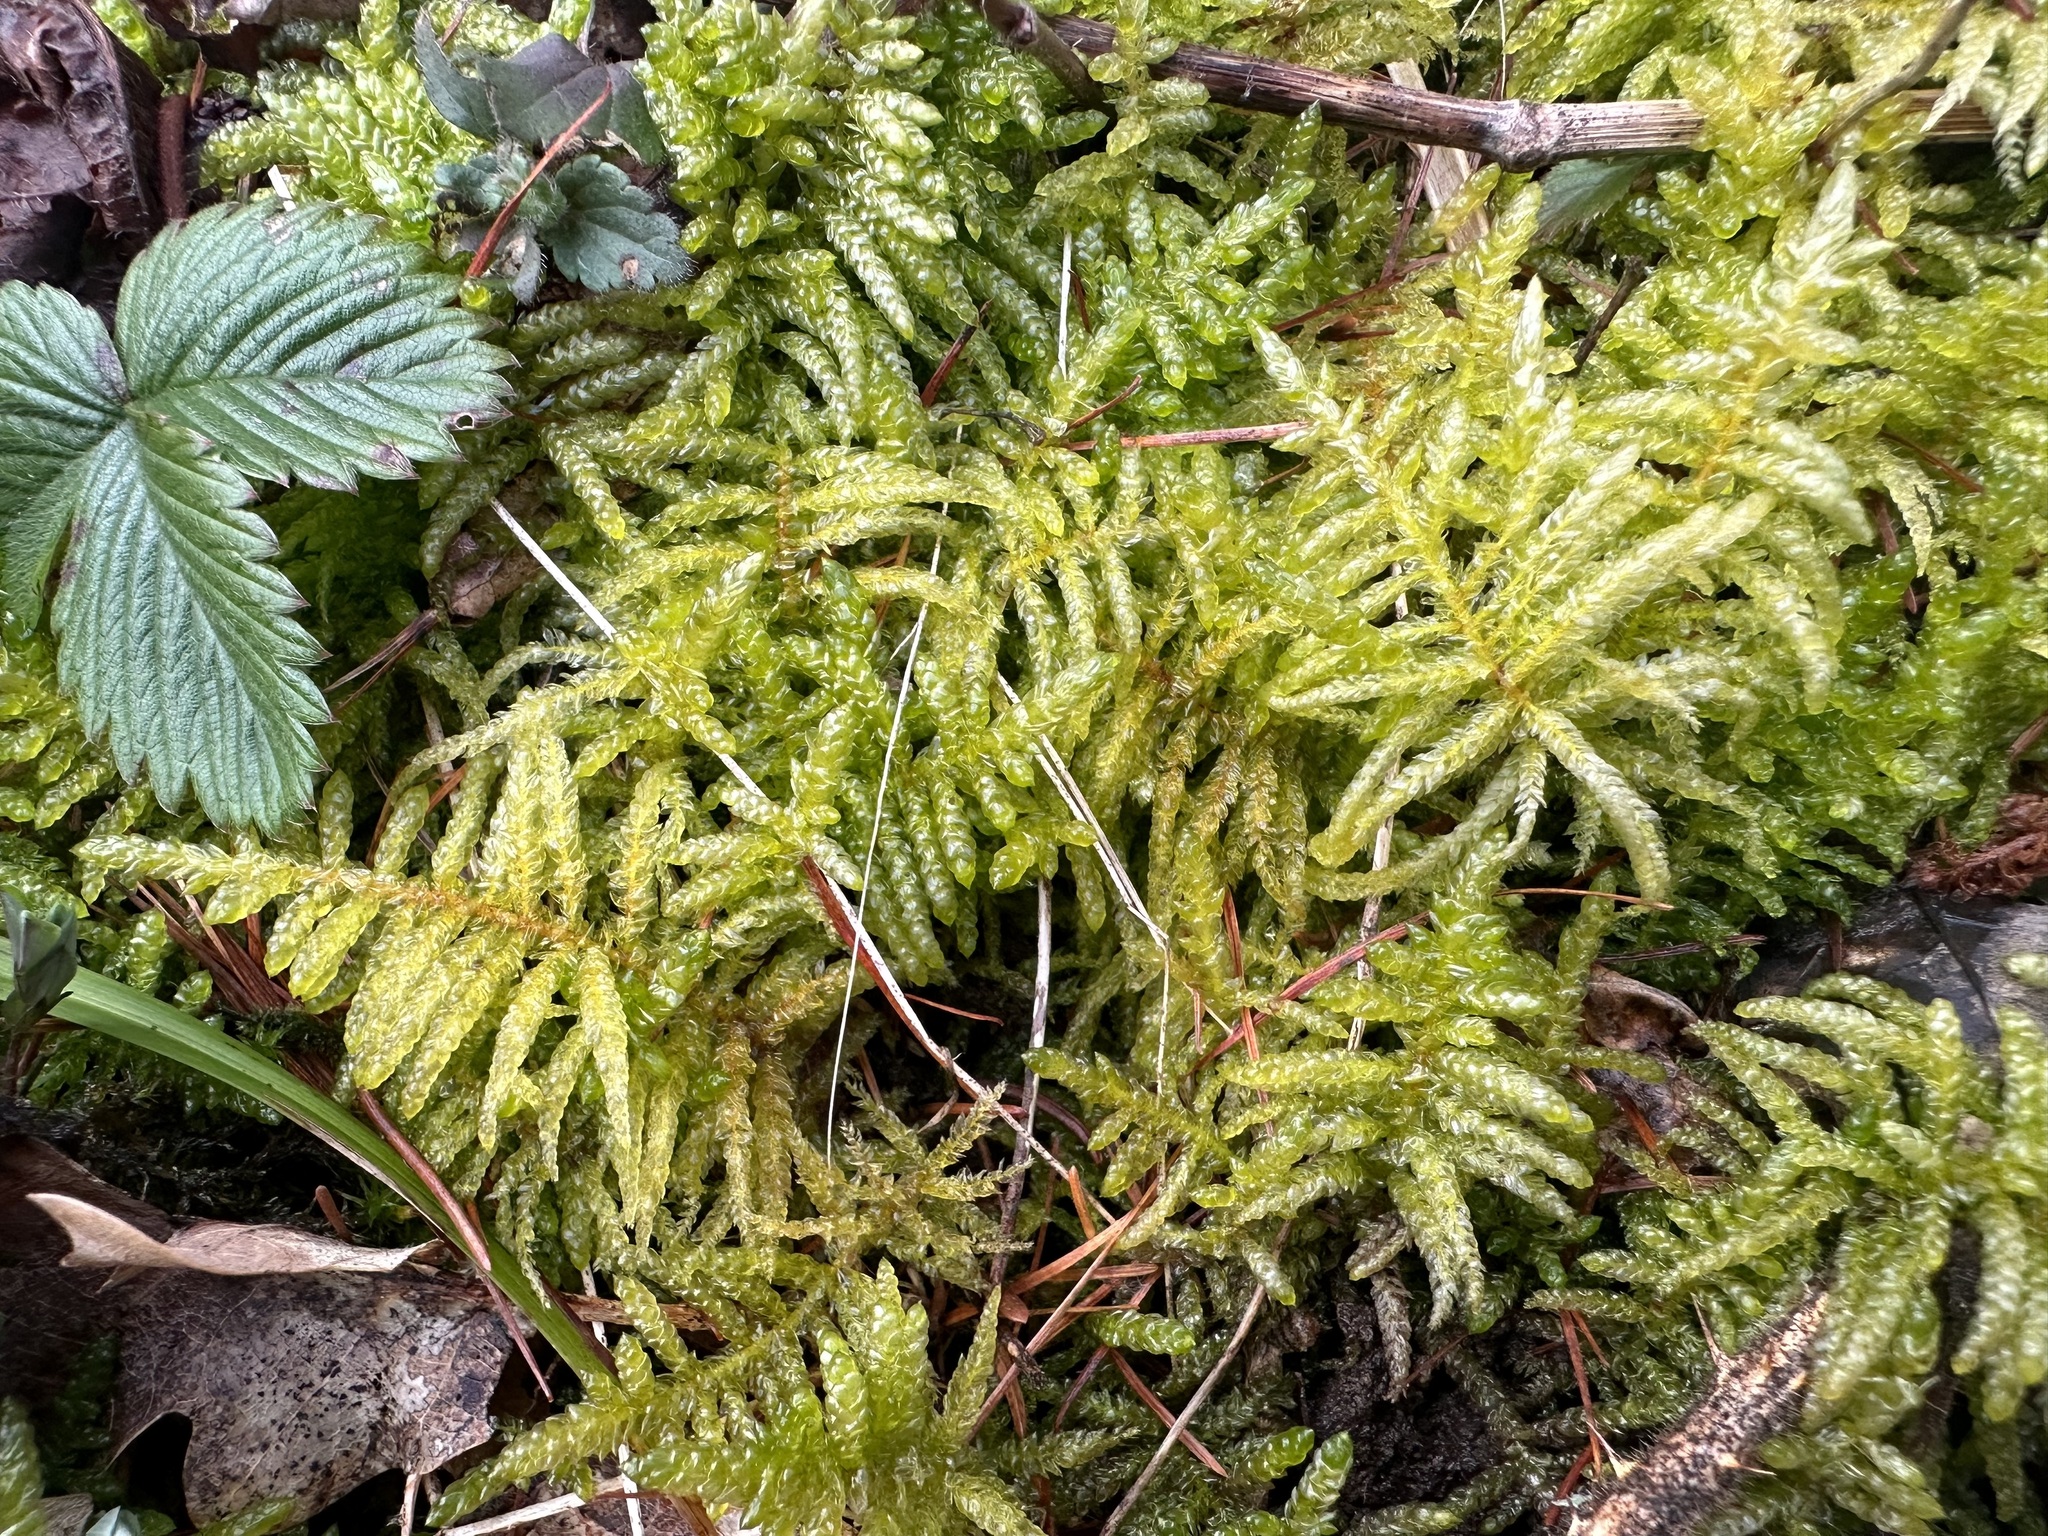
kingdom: Plantae
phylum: Bryophyta
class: Bryopsida
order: Hypnales
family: Brachytheciaceae
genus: Pseudoscleropodium
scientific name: Pseudoscleropodium purum
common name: Neat feather-moss
